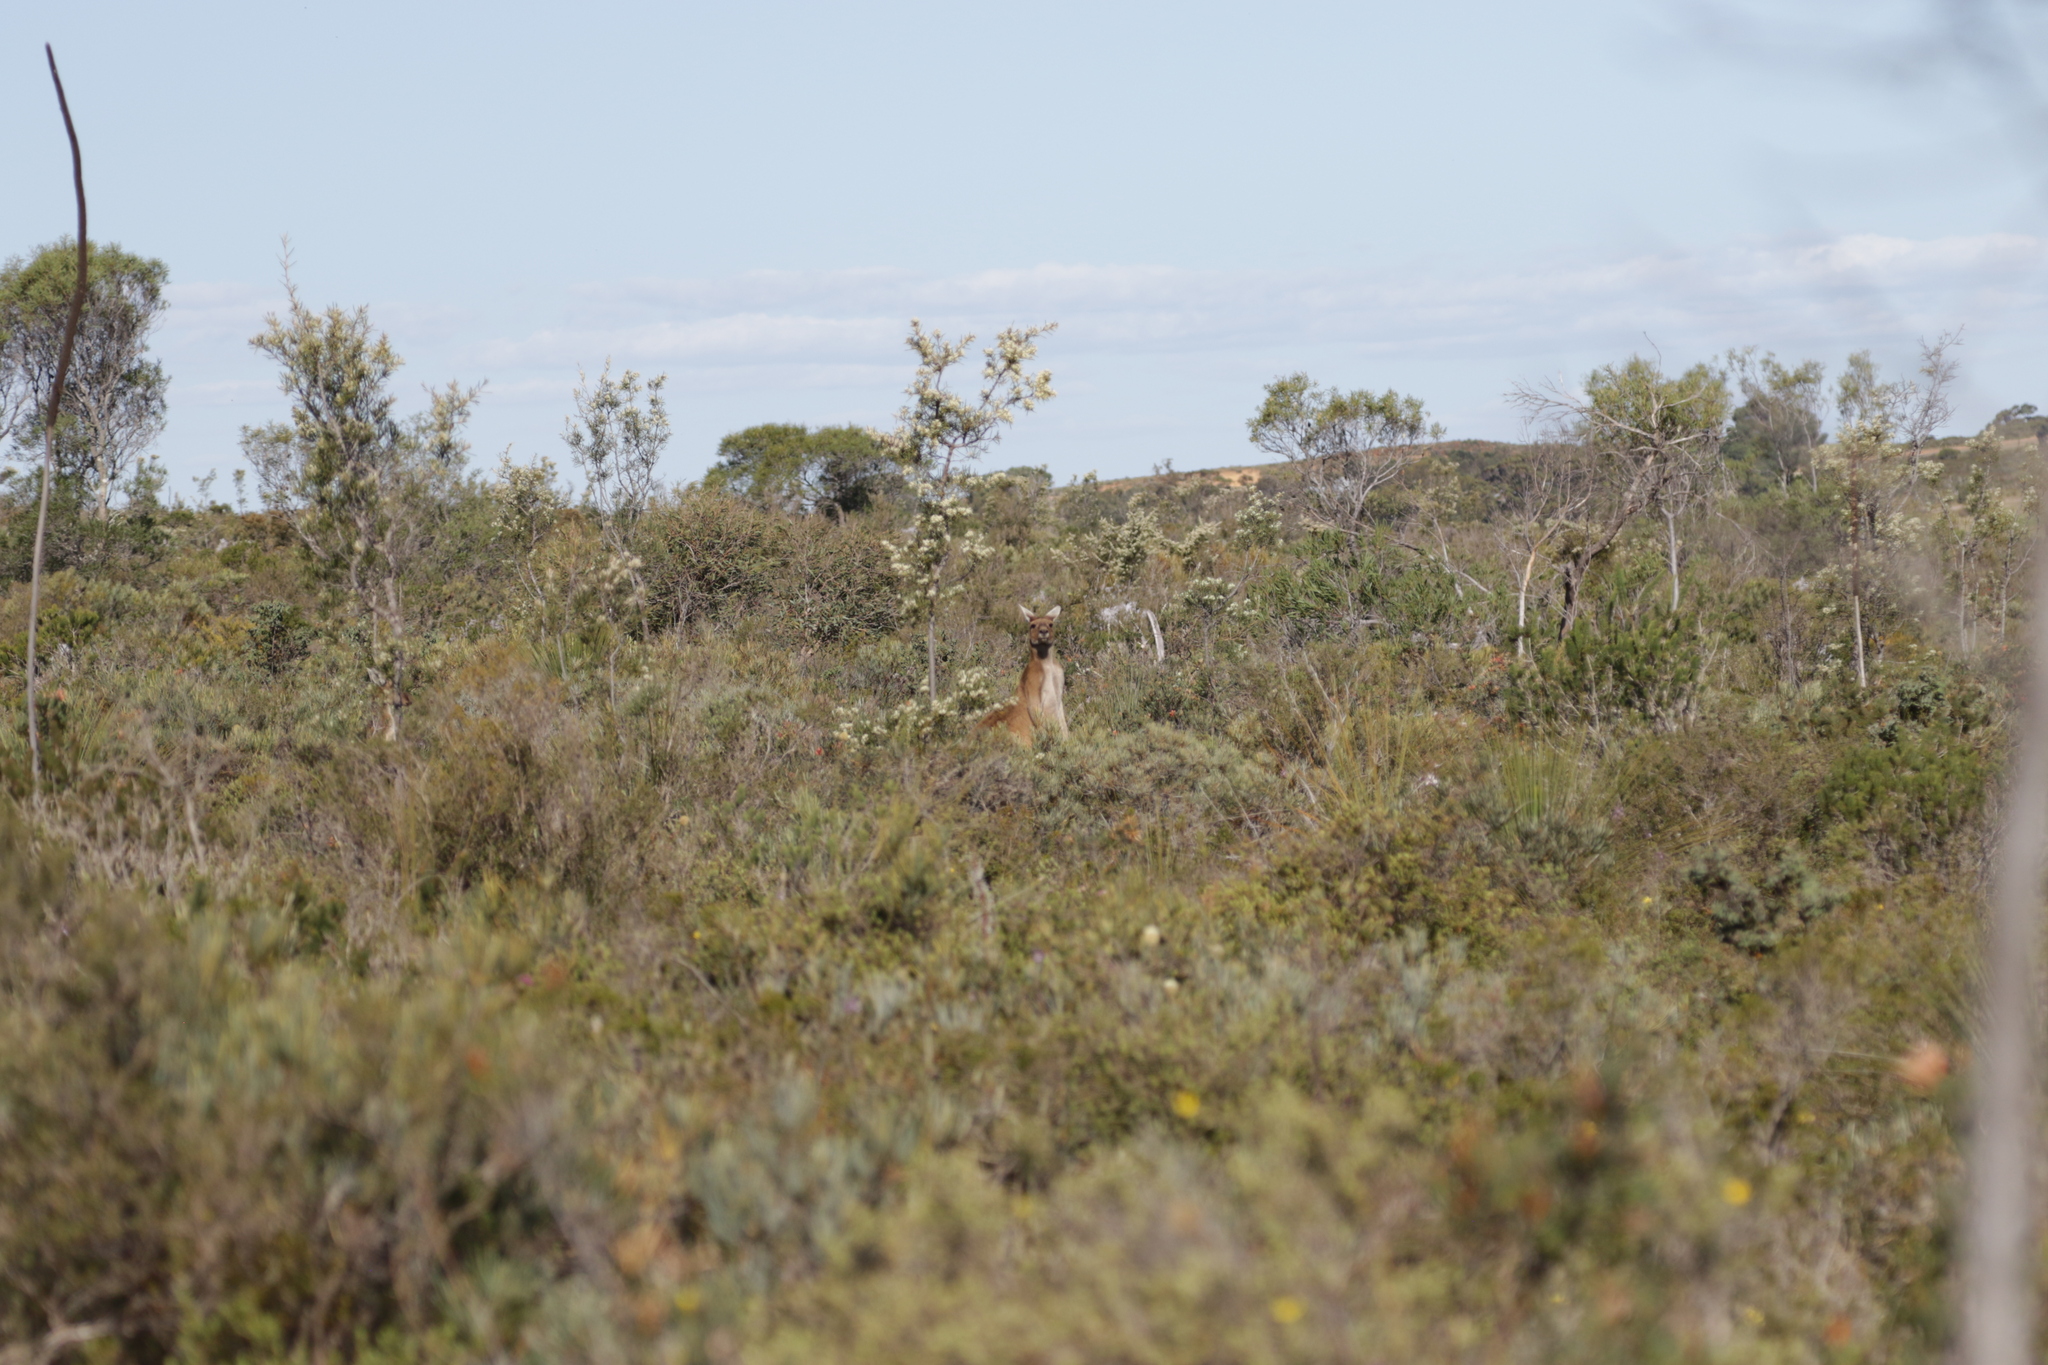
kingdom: Animalia
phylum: Chordata
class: Mammalia
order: Diprotodontia
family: Macropodidae
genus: Macropus
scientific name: Macropus fuliginosus
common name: Western grey kangaroo
